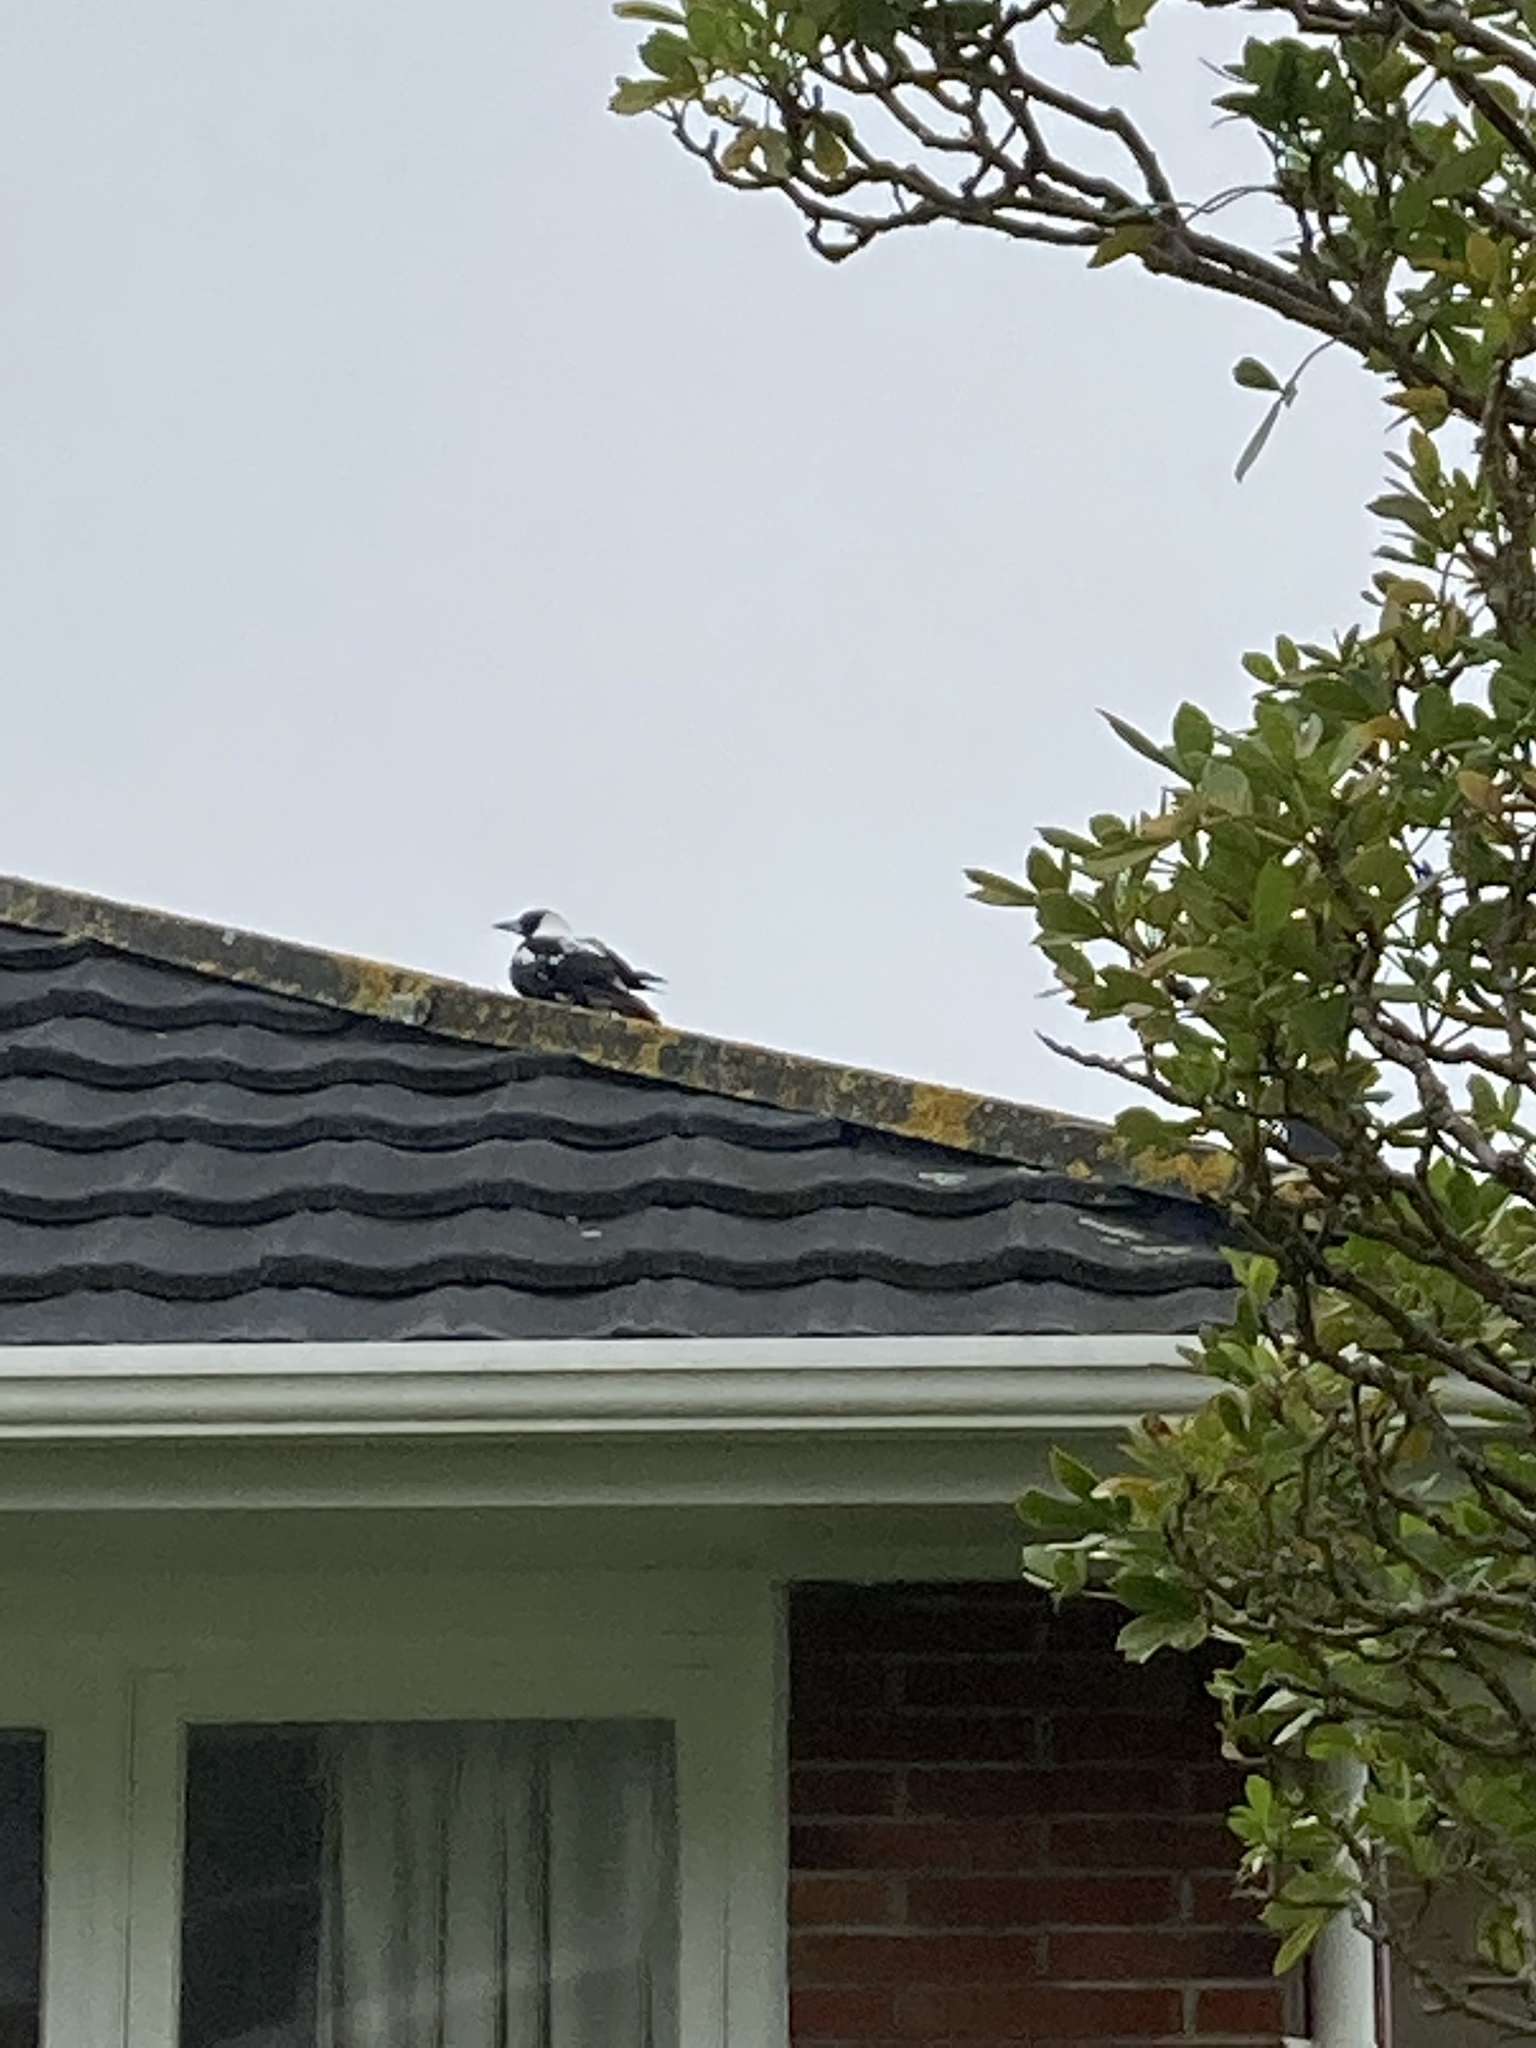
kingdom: Animalia
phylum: Chordata
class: Aves
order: Passeriformes
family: Cracticidae
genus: Gymnorhina
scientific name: Gymnorhina tibicen
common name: Australian magpie
